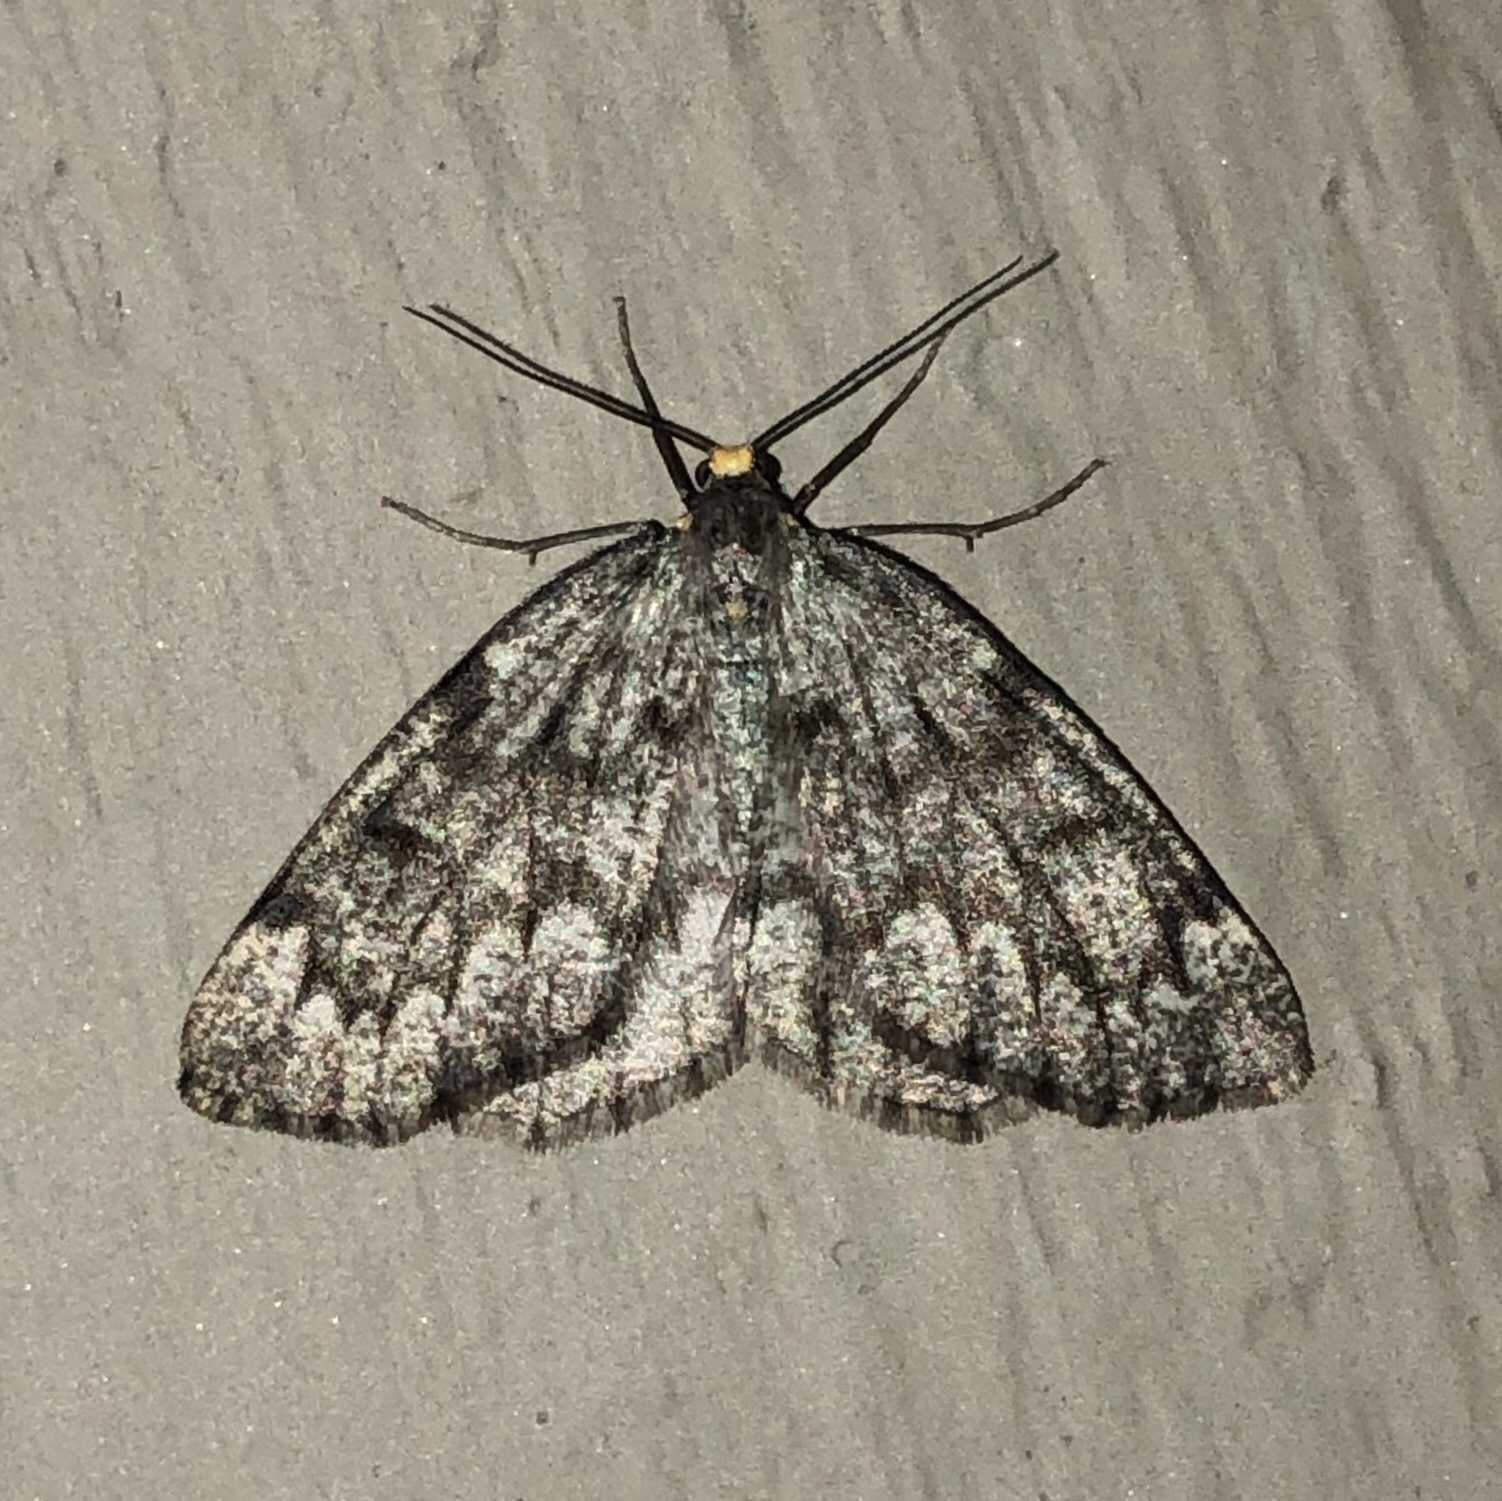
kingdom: Animalia
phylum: Arthropoda
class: Insecta
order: Lepidoptera
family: Geometridae
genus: Nepytia
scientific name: Nepytia canosaria
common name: False hemlock looper
